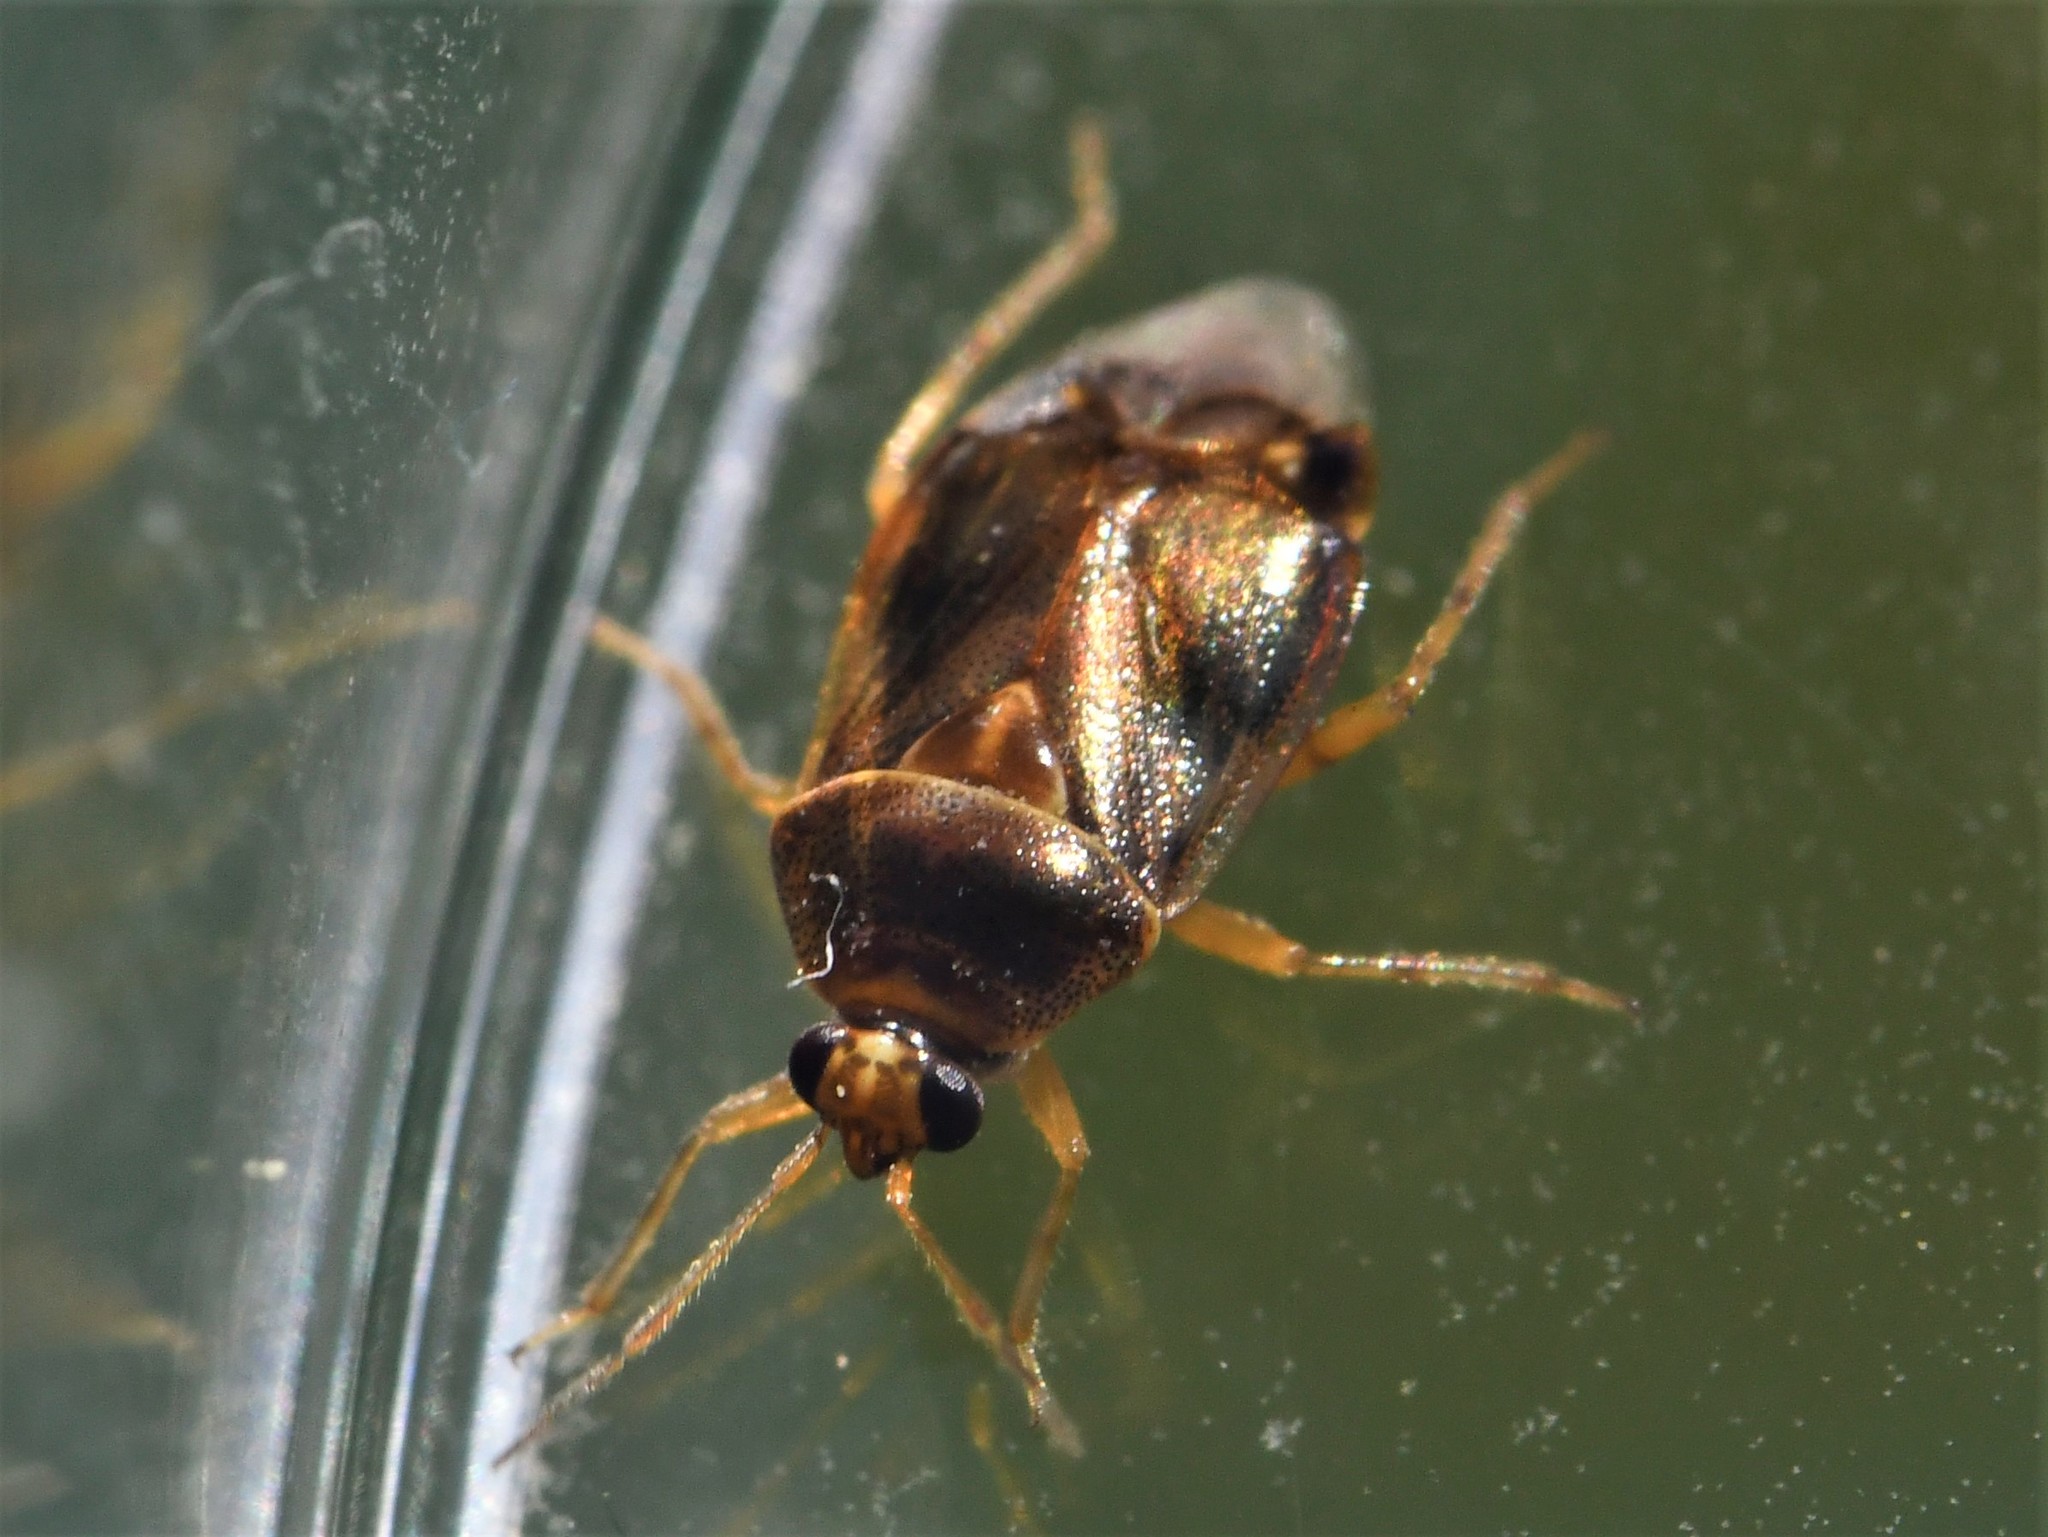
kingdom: Animalia
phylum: Arthropoda
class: Insecta
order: Hemiptera
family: Miridae
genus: Deraeocoris
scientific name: Deraeocoris lutescens
